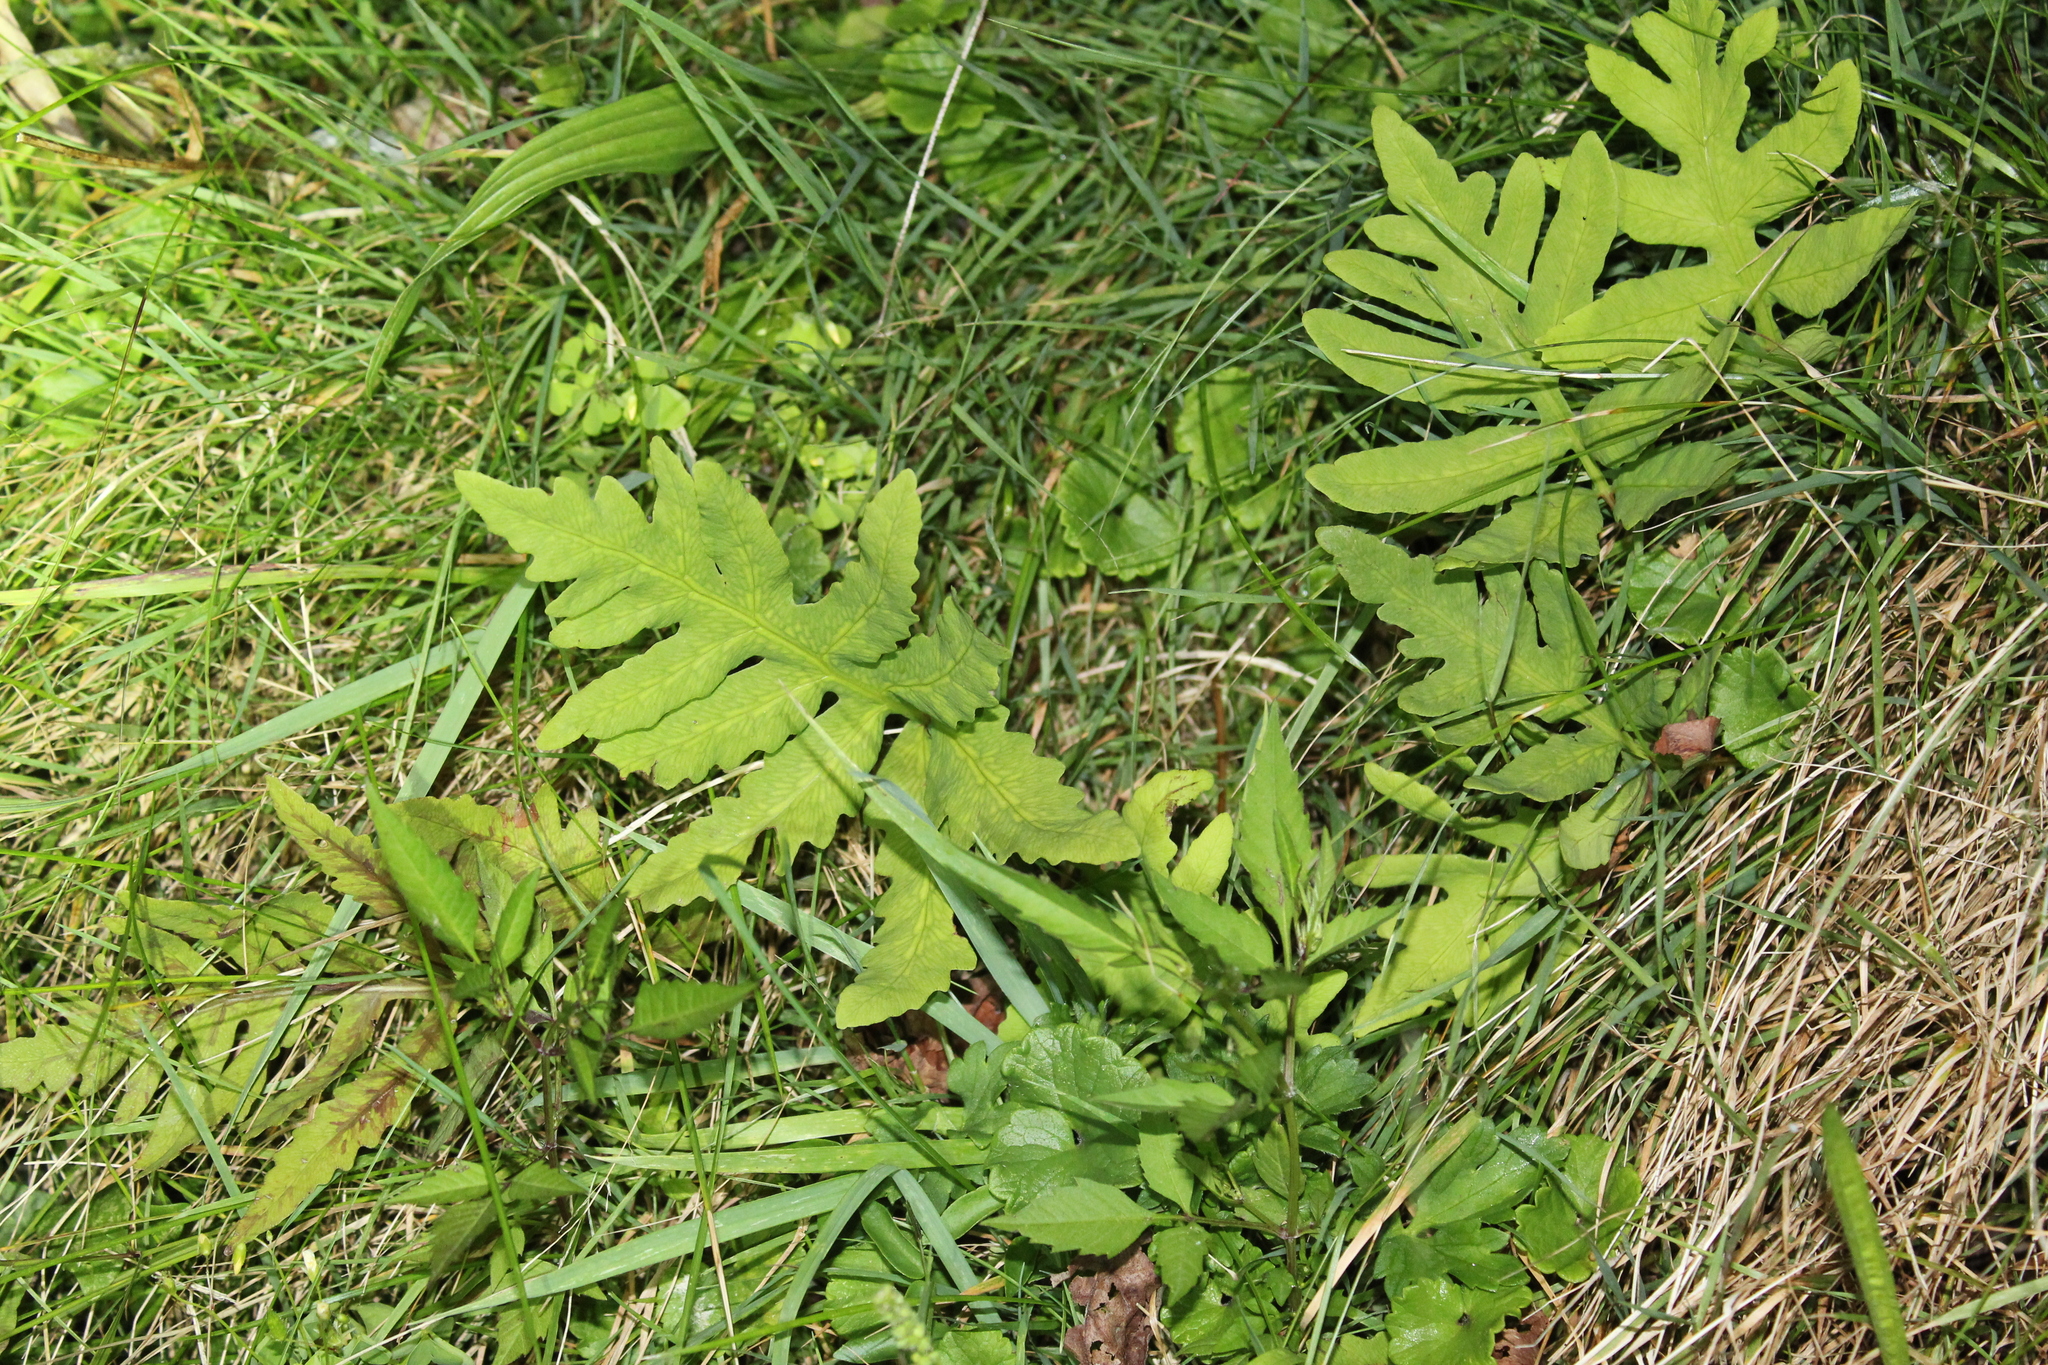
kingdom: Plantae
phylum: Tracheophyta
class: Polypodiopsida
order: Polypodiales
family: Onocleaceae
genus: Onoclea
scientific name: Onoclea sensibilis
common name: Sensitive fern
